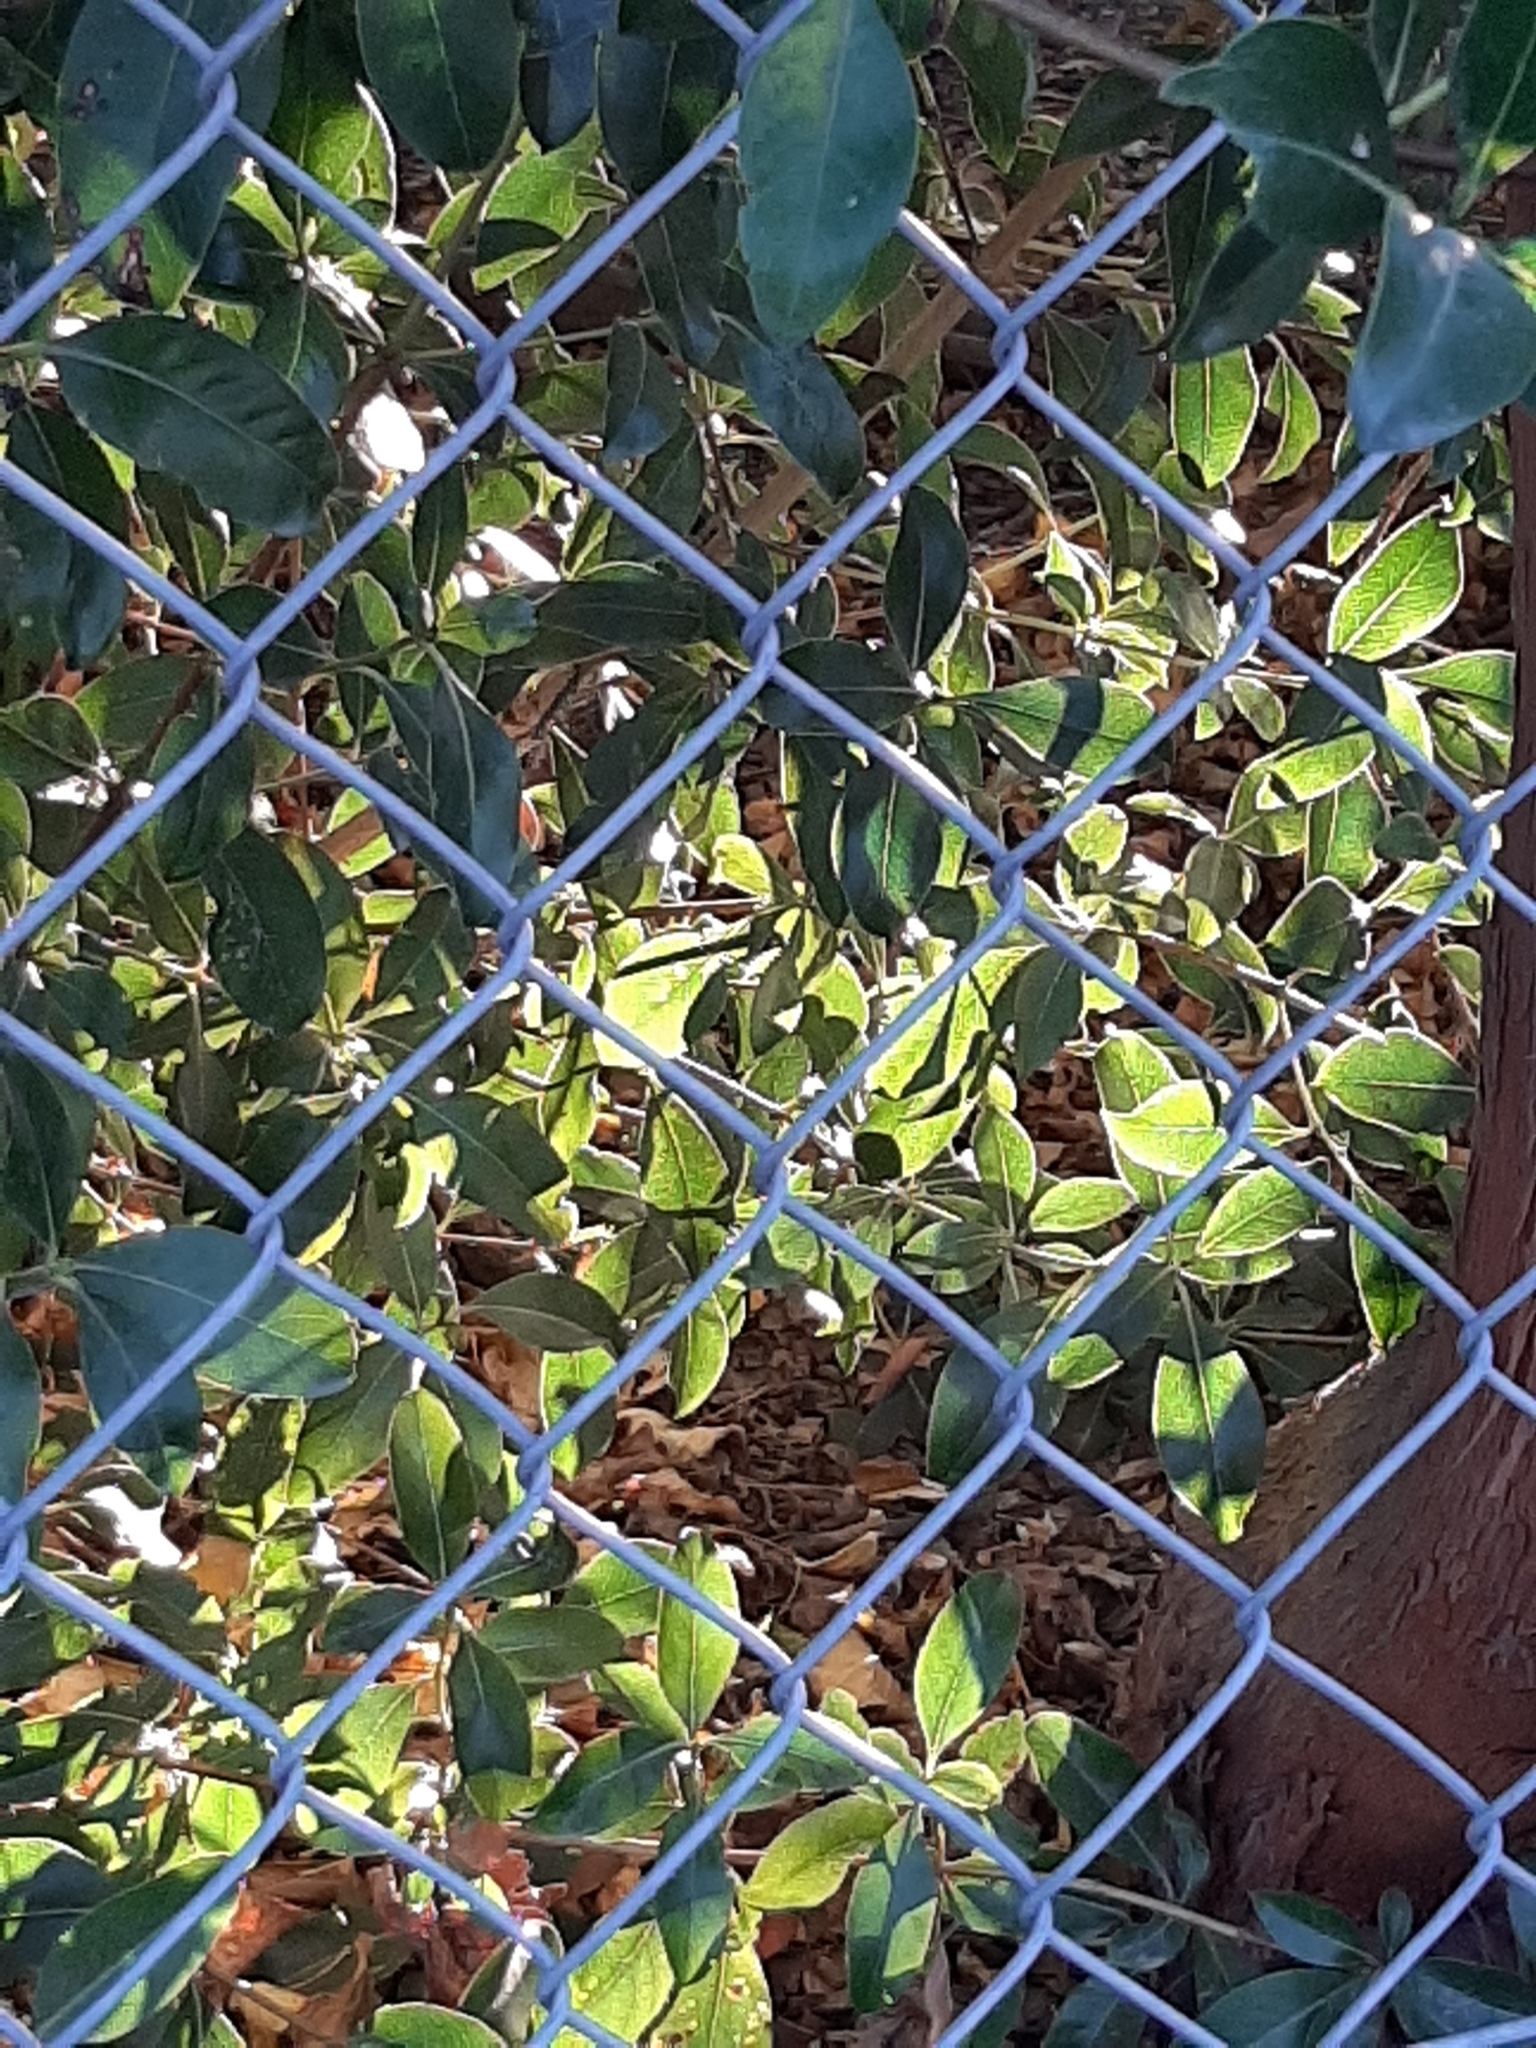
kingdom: Plantae
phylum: Tracheophyta
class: Magnoliopsida
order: Gentianales
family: Rubiaceae
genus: Coprosma
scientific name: Coprosma robusta
